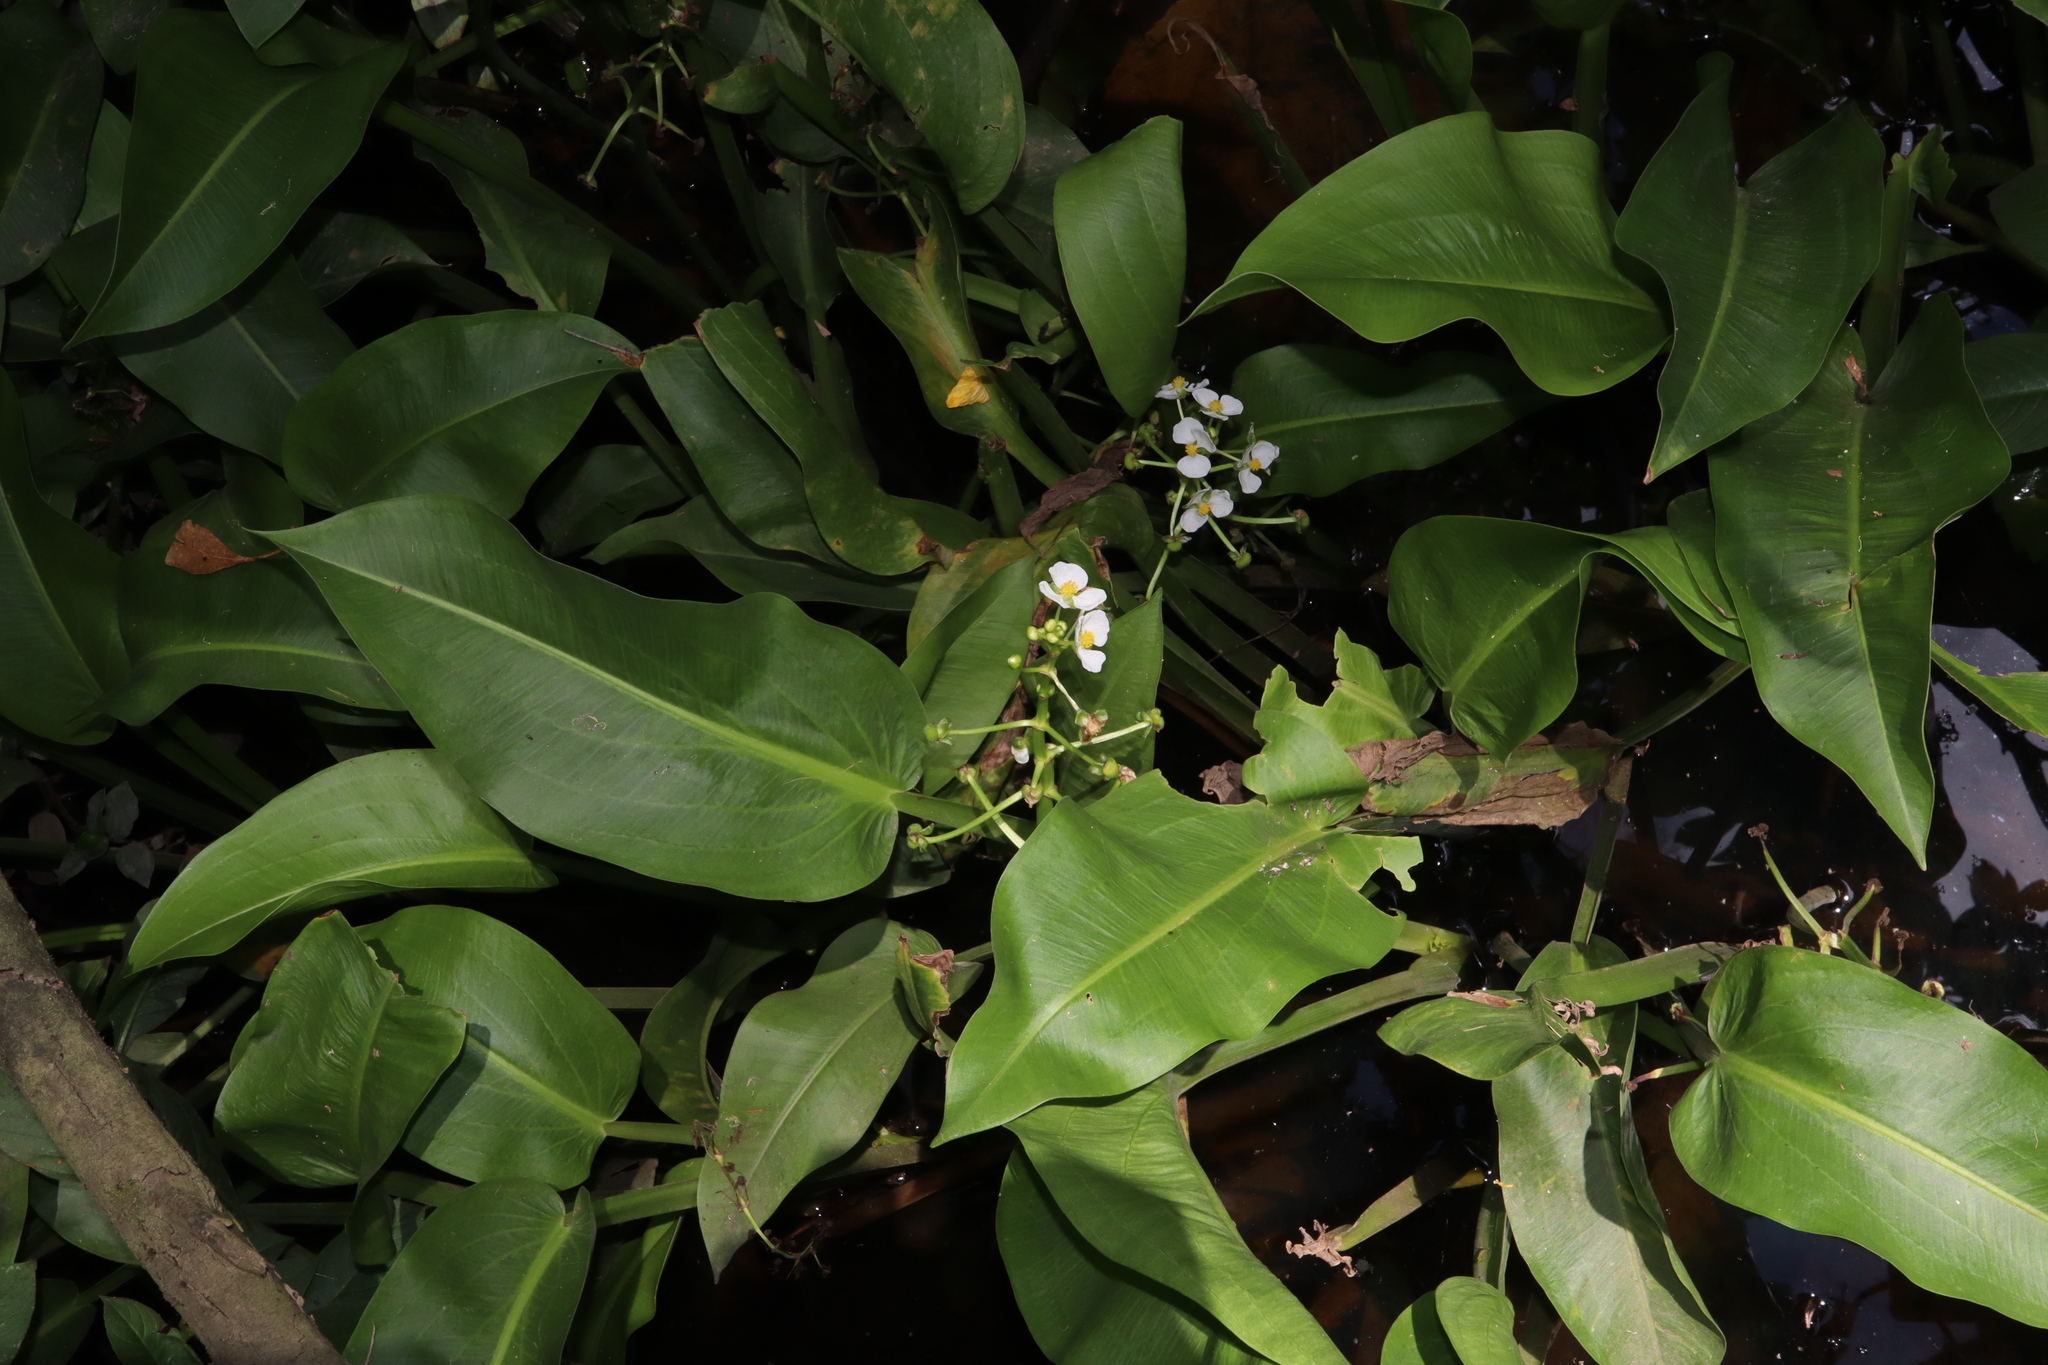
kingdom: Plantae
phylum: Tracheophyta
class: Liliopsida
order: Alismatales
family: Alismataceae
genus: Sagittaria
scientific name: Sagittaria platyphylla
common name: Broad-leaf arrowhead
